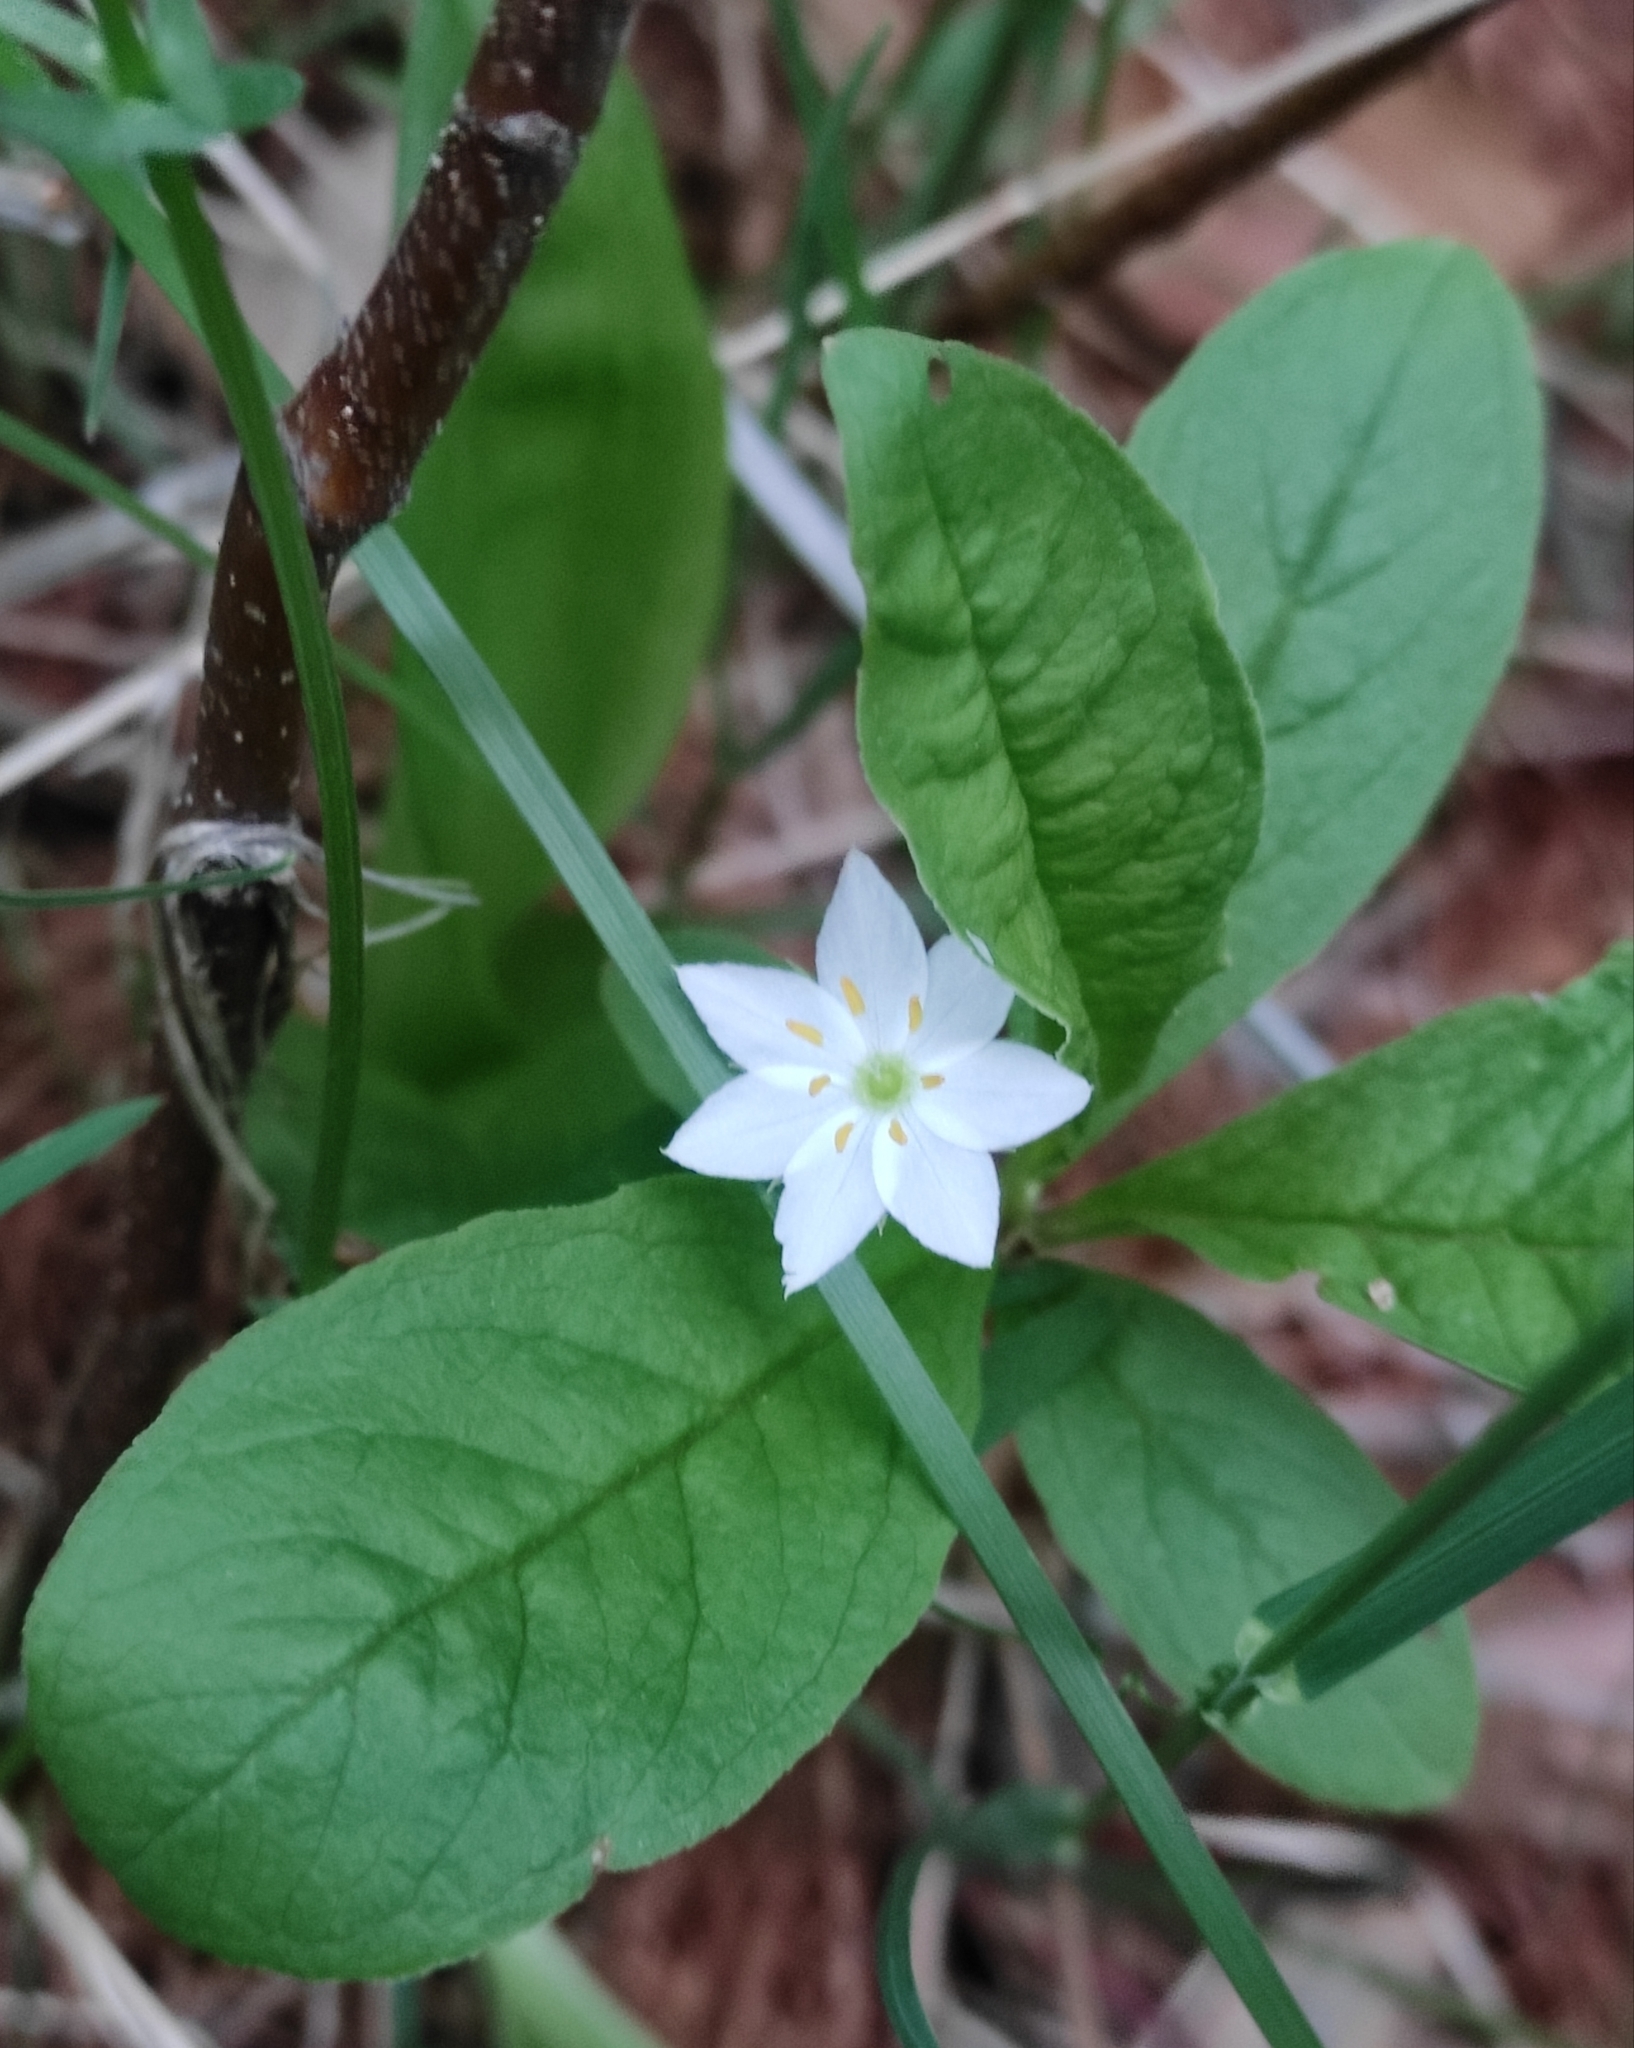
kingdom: Plantae
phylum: Tracheophyta
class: Magnoliopsida
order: Ericales
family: Primulaceae
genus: Lysimachia
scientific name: Lysimachia europaea
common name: Arctic starflower
